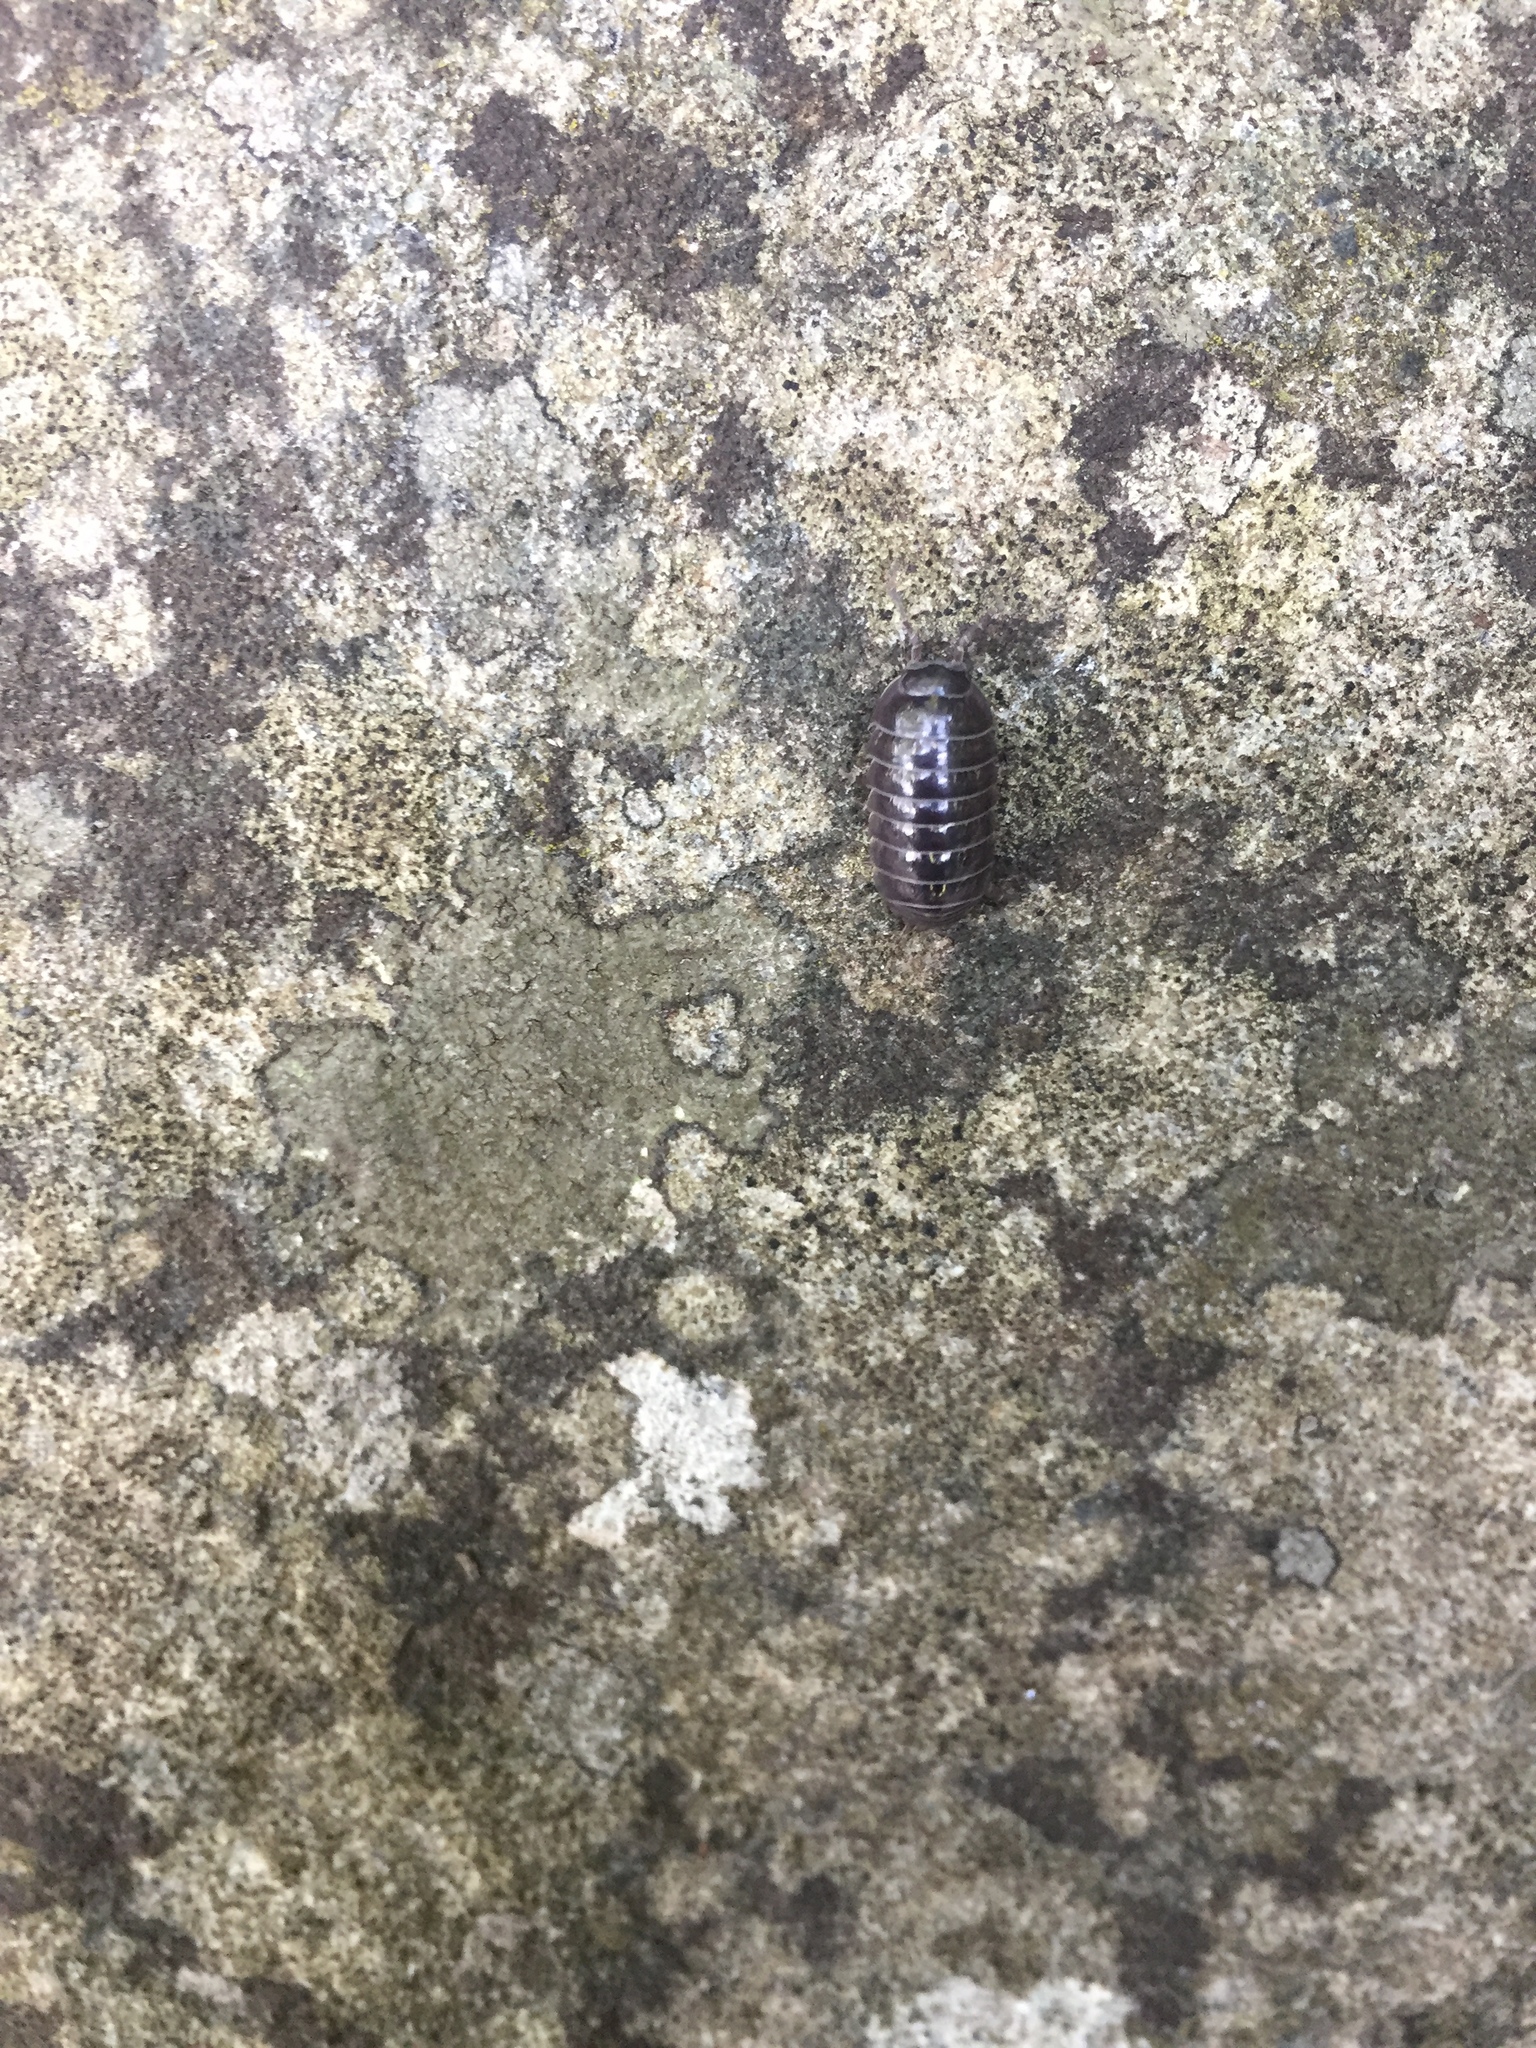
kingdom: Animalia
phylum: Arthropoda
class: Malacostraca
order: Isopoda
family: Armadillidiidae
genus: Armadillidium
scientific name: Armadillidium vulgare
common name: Common pill woodlouse
